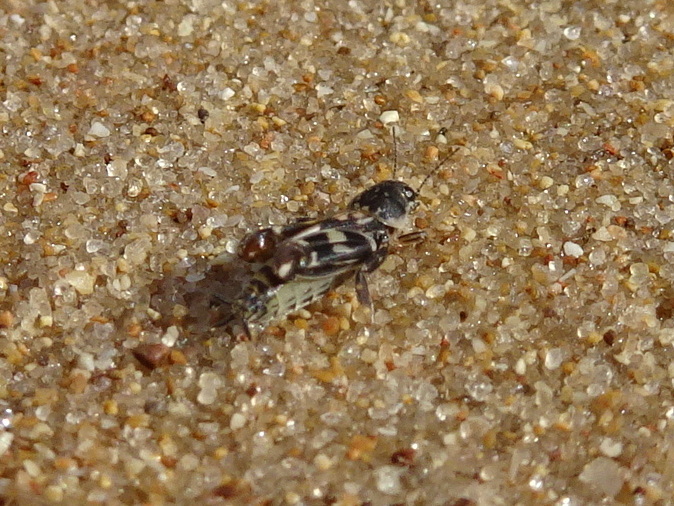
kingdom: Animalia
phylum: Arthropoda
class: Insecta
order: Orthoptera
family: Tridactylidae
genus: Ellipes
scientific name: Ellipes minuta
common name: Minute pygmy locust
